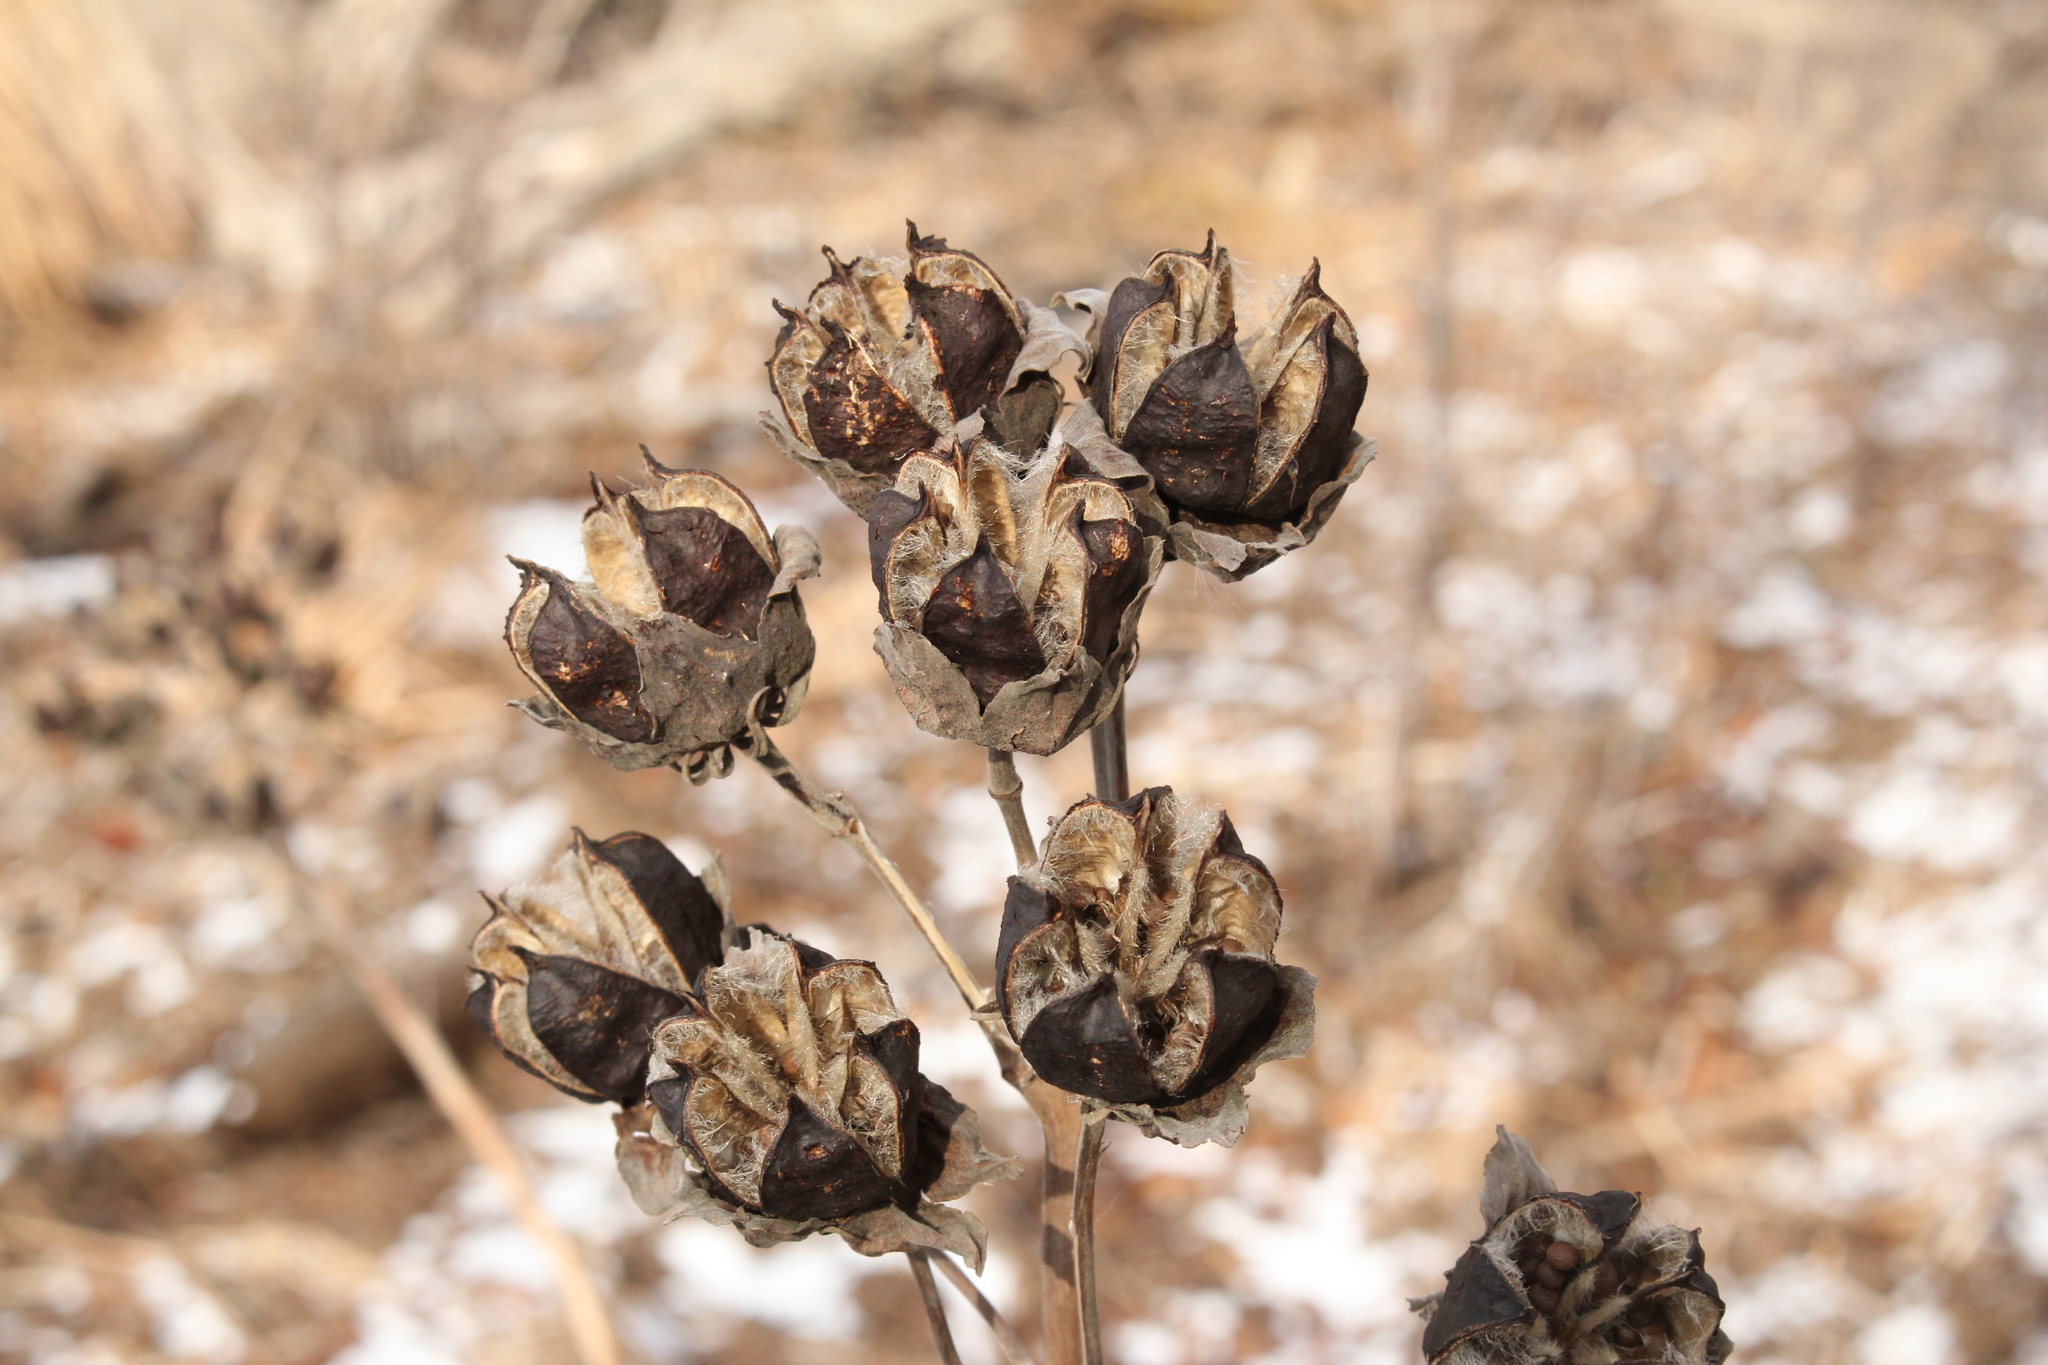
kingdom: Plantae
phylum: Tracheophyta
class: Magnoliopsida
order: Malvales
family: Malvaceae
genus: Hibiscus
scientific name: Hibiscus moscheutos
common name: Common rose-mallow
